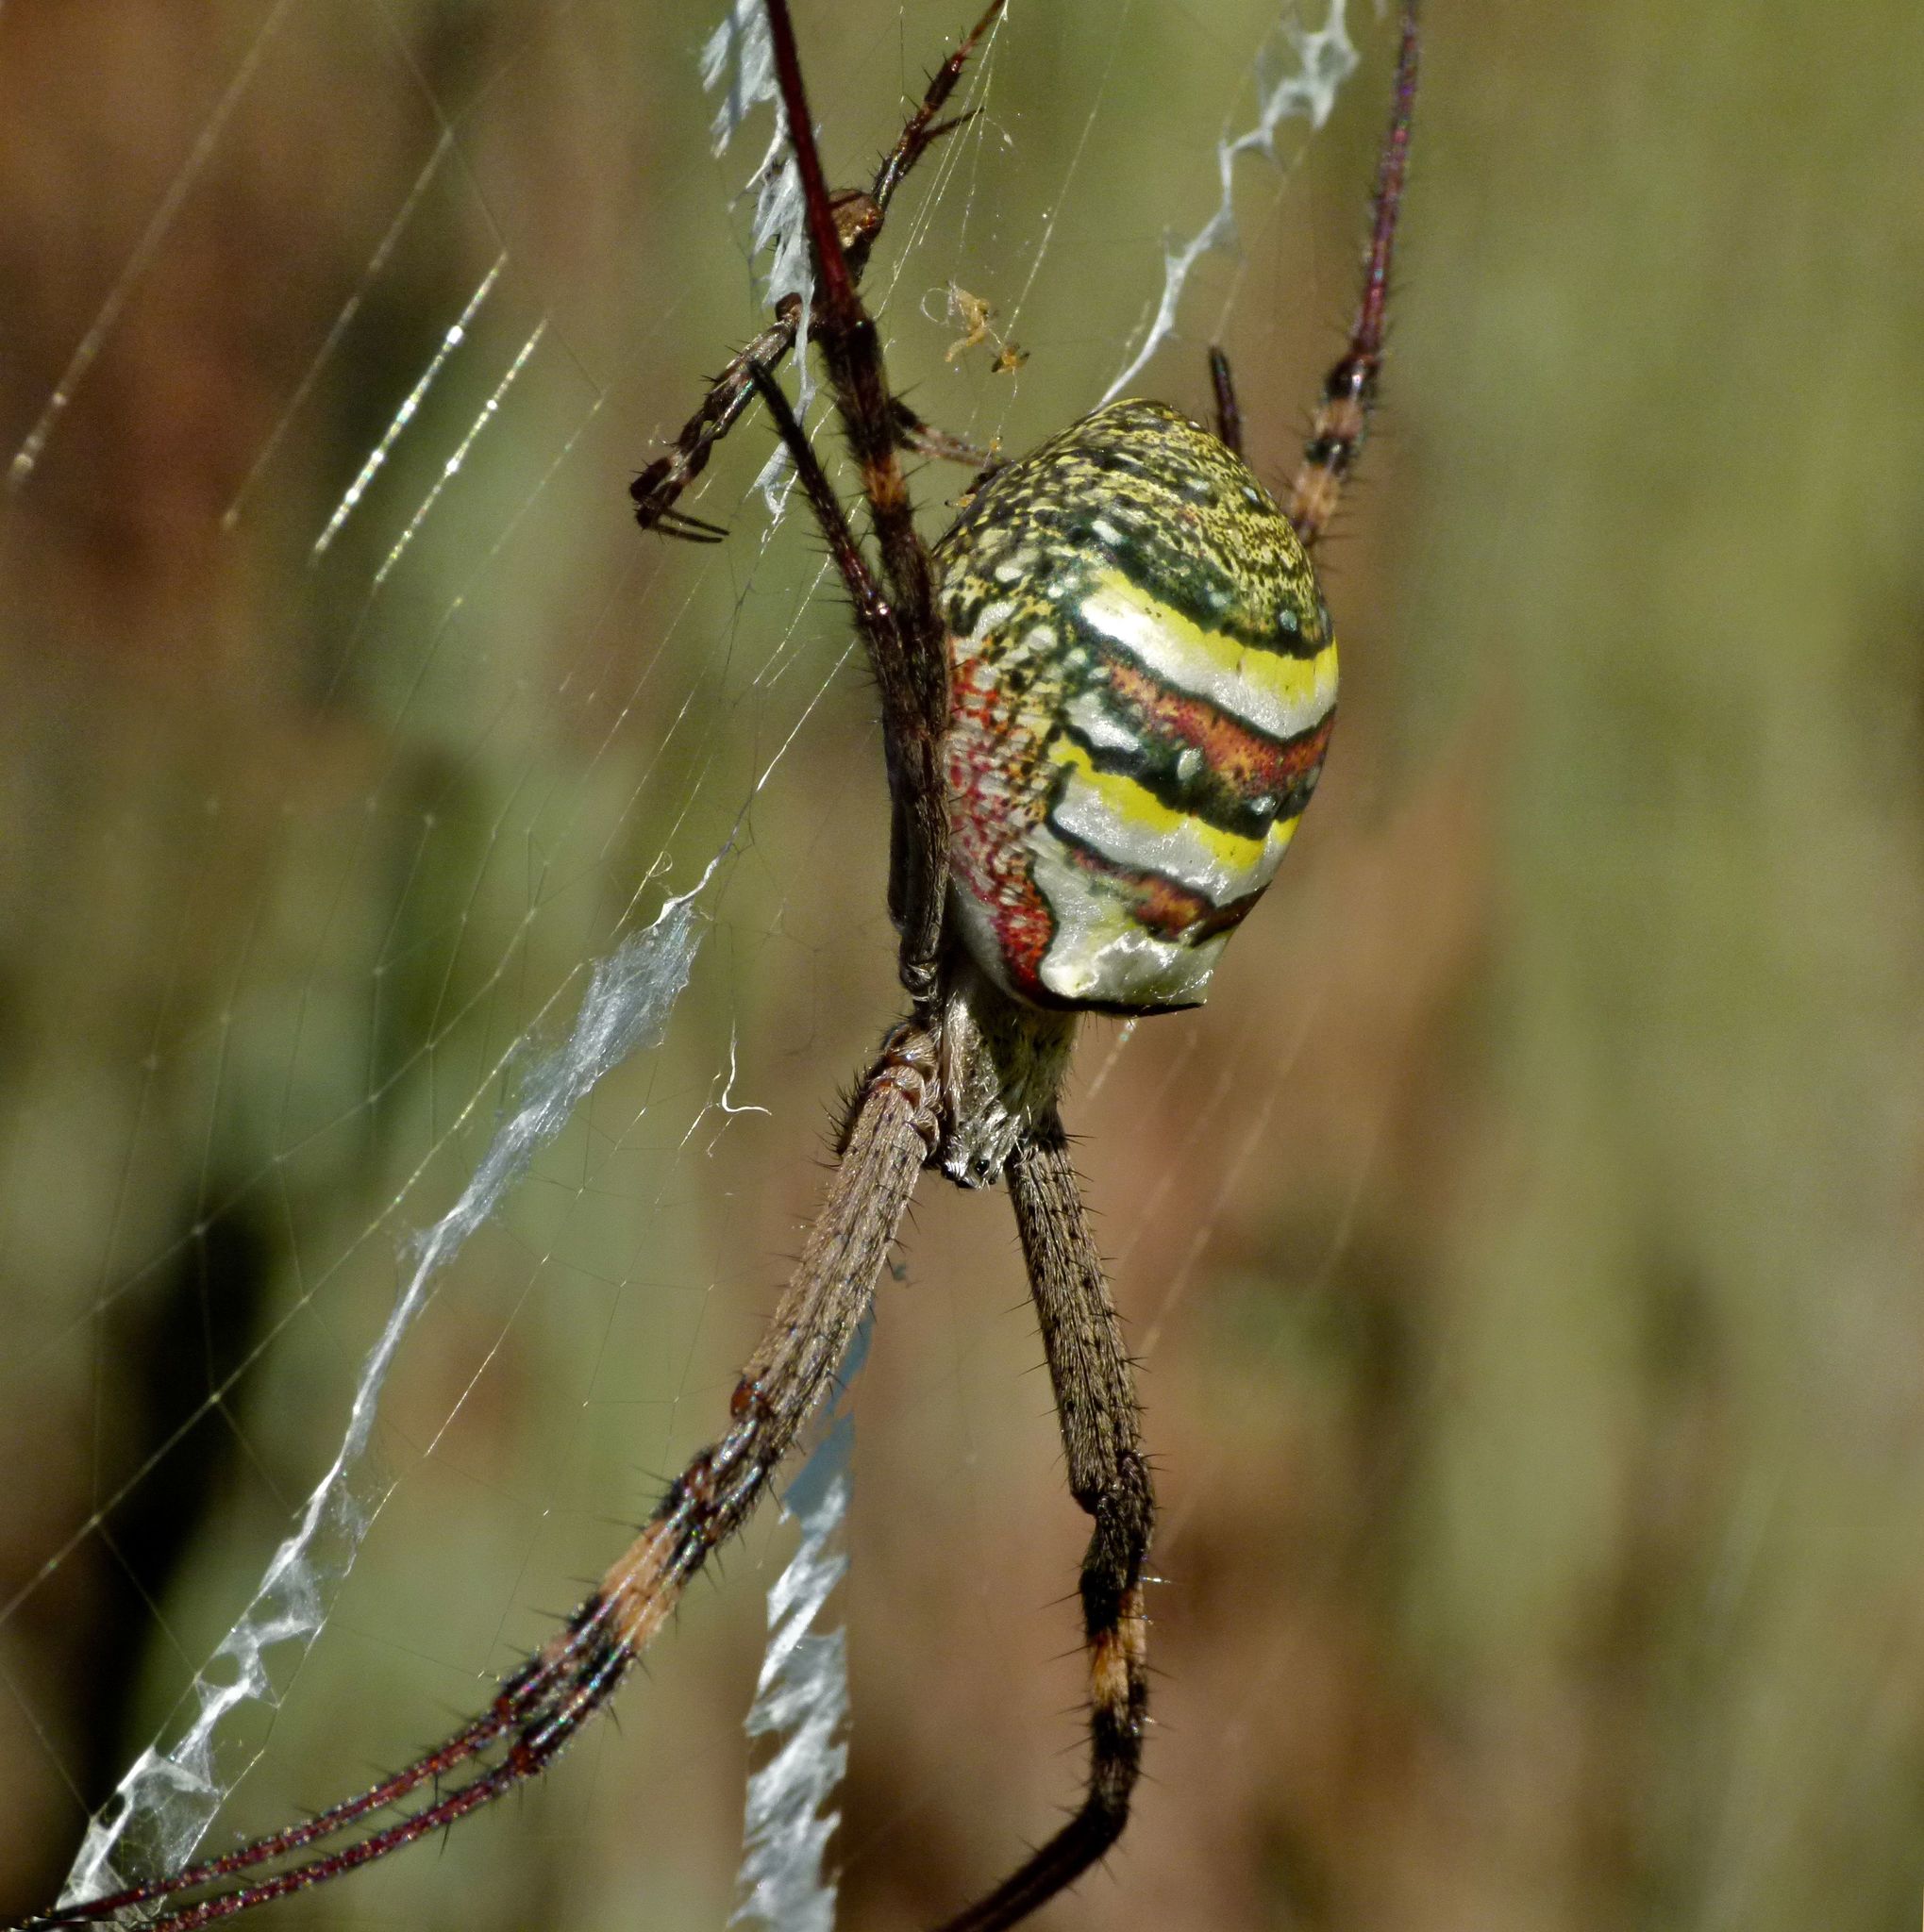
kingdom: Animalia
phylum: Arthropoda
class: Arachnida
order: Araneae
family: Araneidae
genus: Argiope
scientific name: Argiope keyserlingi
